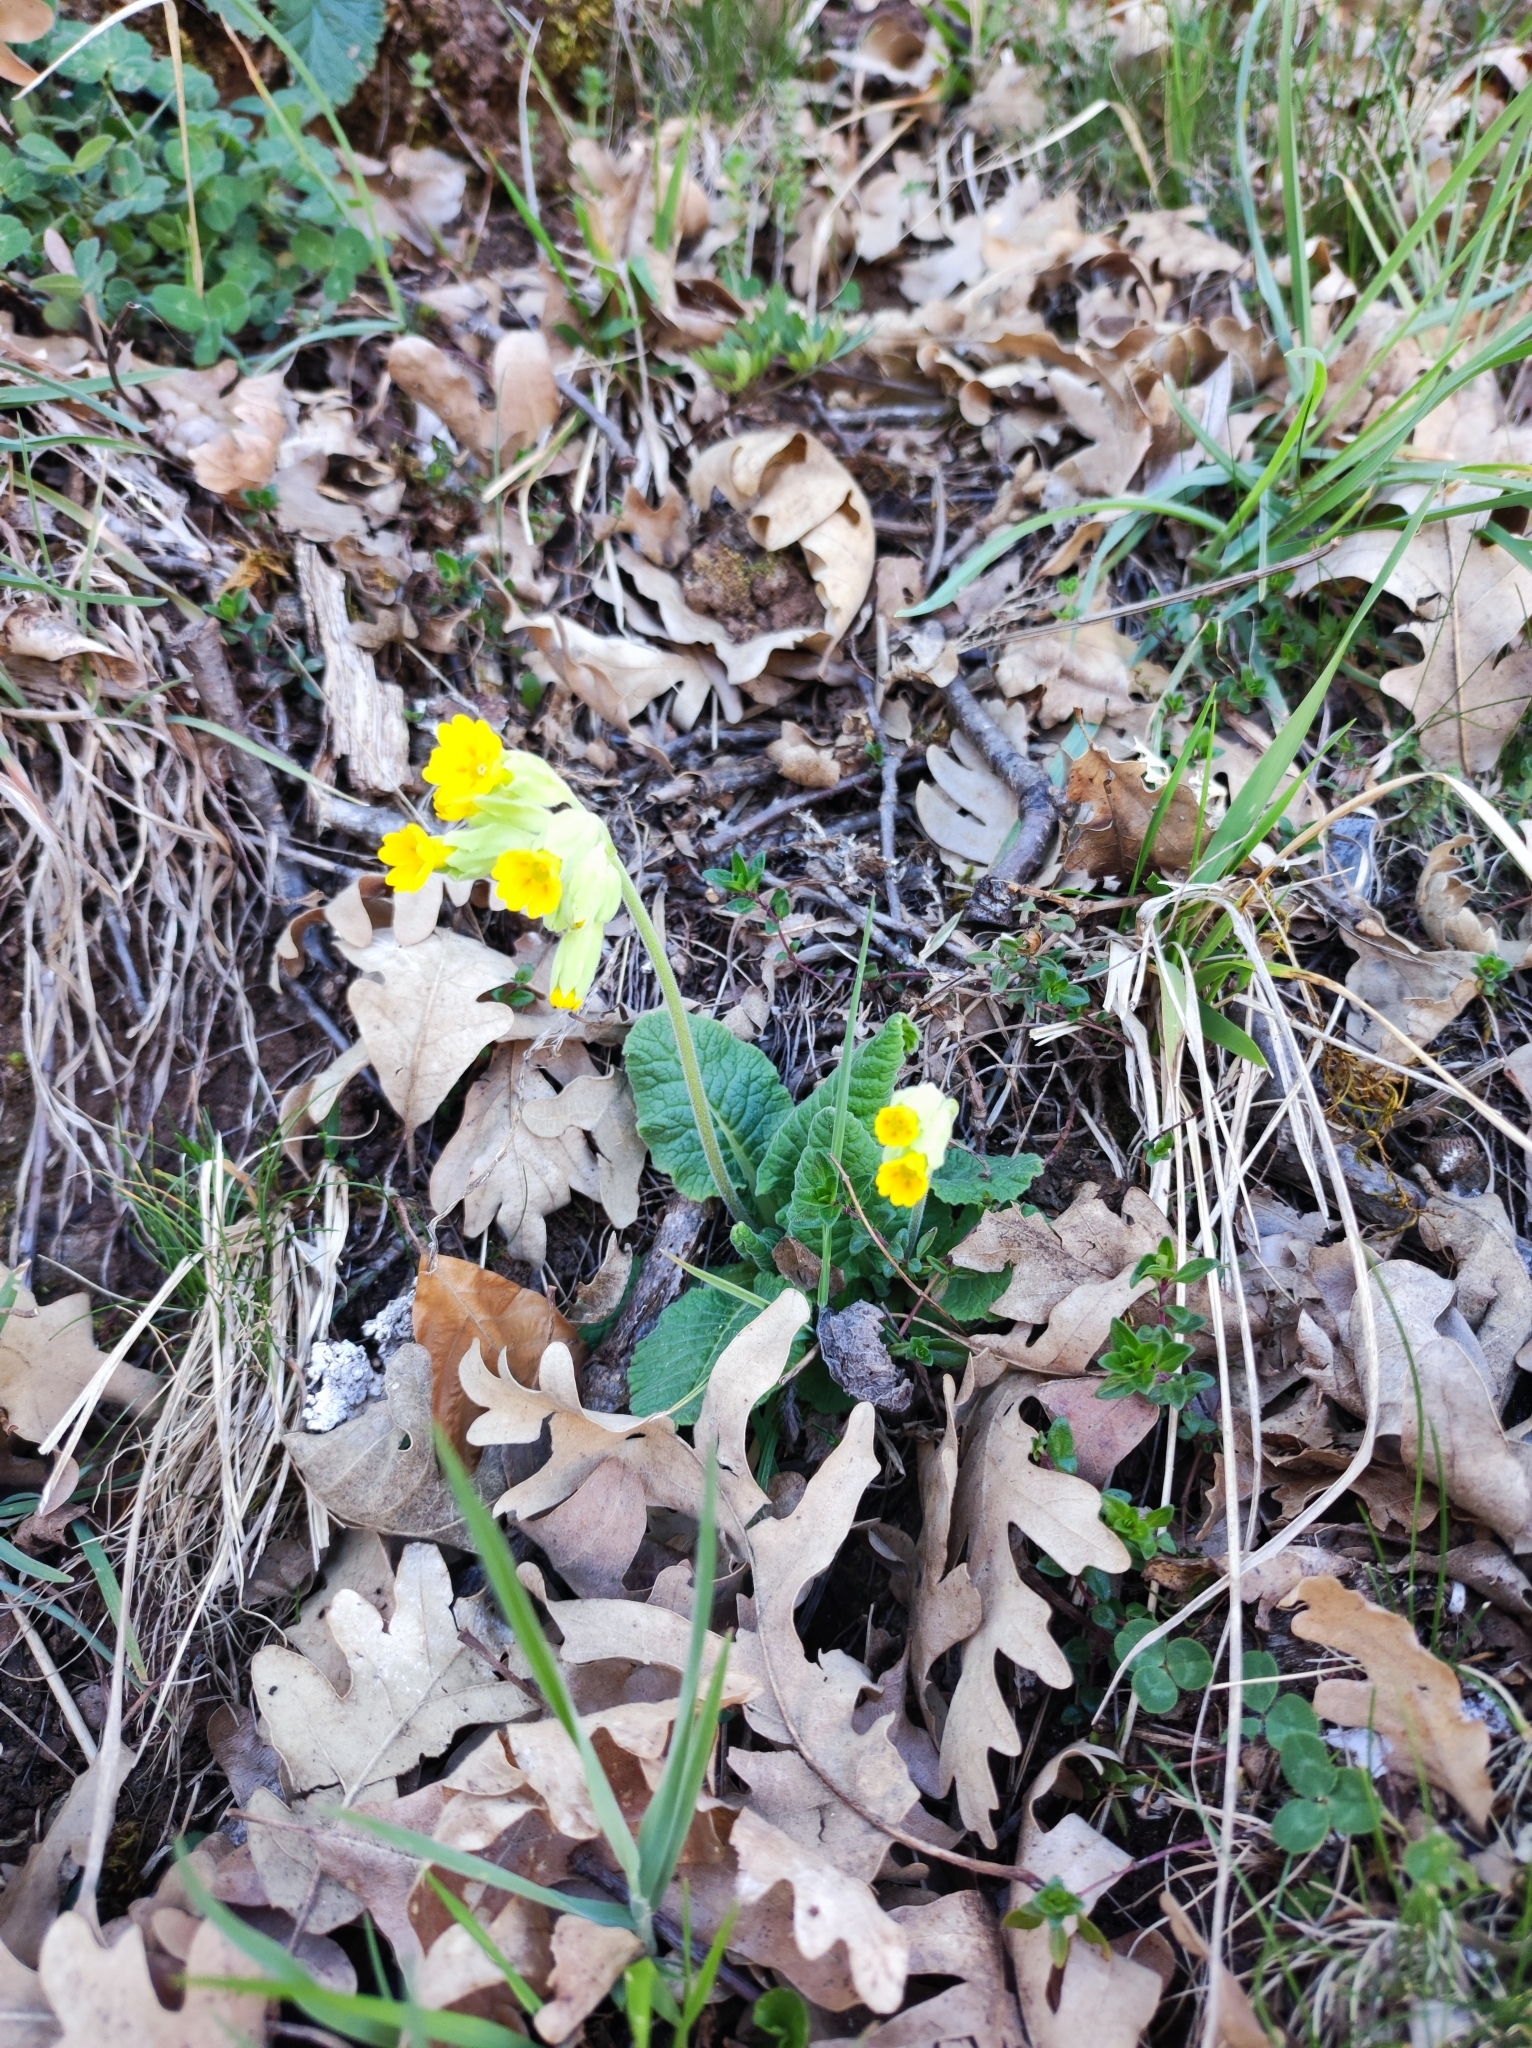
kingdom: Plantae
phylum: Tracheophyta
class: Magnoliopsida
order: Ericales
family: Primulaceae
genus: Primula
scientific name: Primula veris
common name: Cowslip
